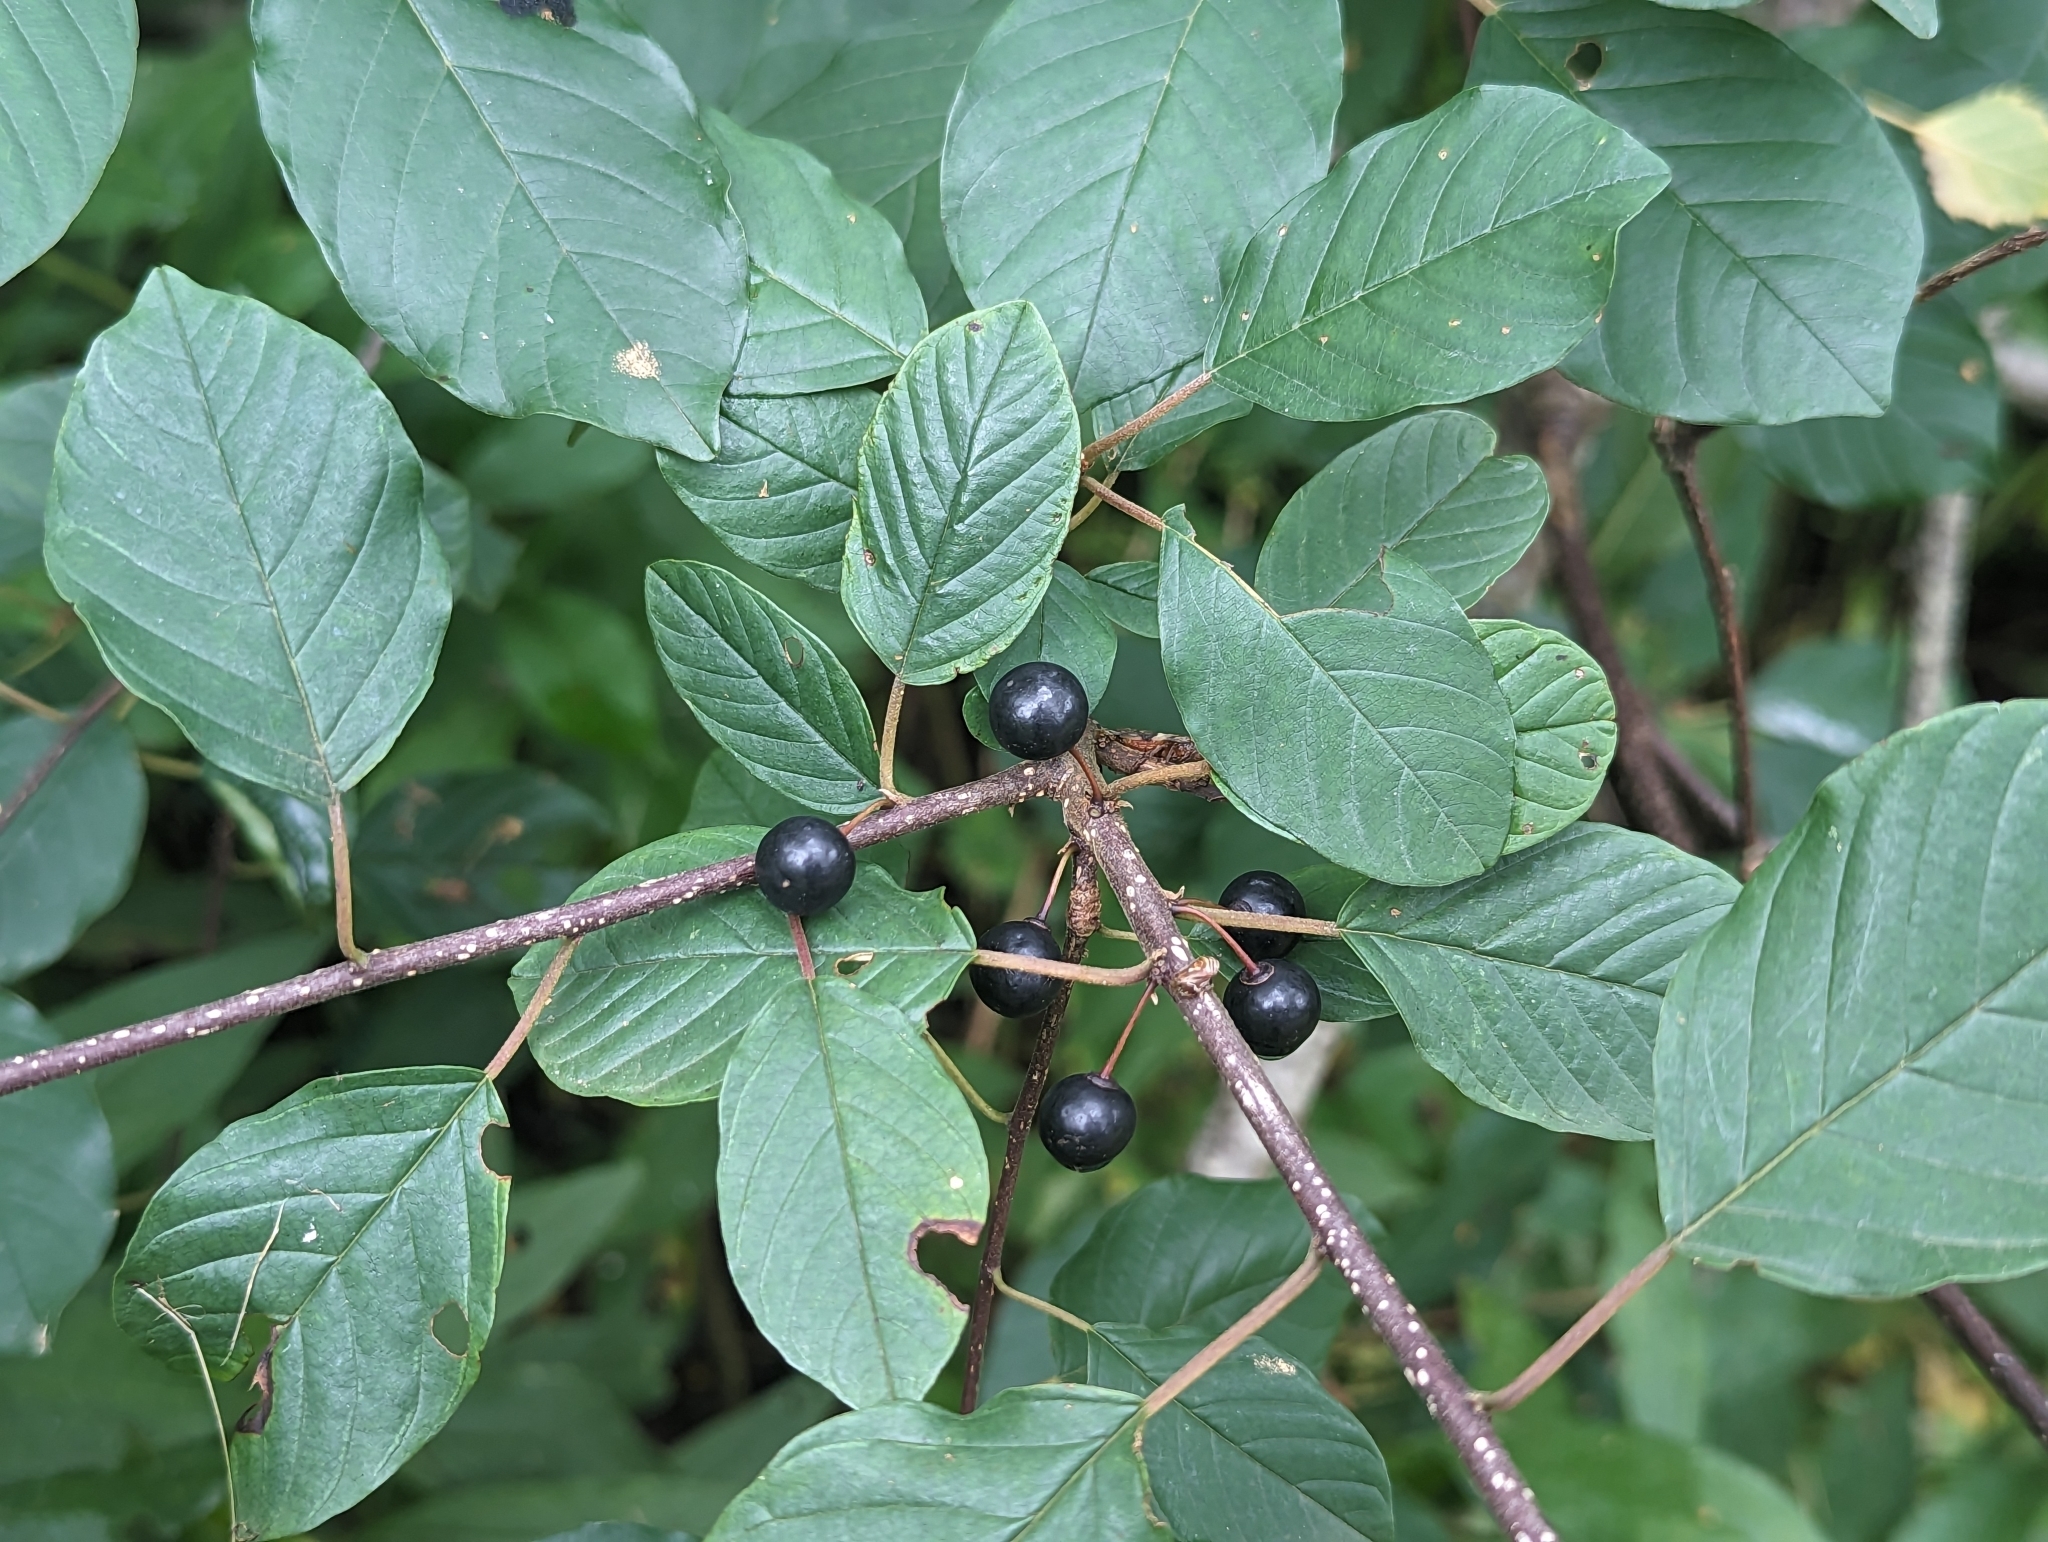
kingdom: Plantae
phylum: Tracheophyta
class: Magnoliopsida
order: Rosales
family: Rhamnaceae
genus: Frangula
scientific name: Frangula alnus
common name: Alder buckthorn
